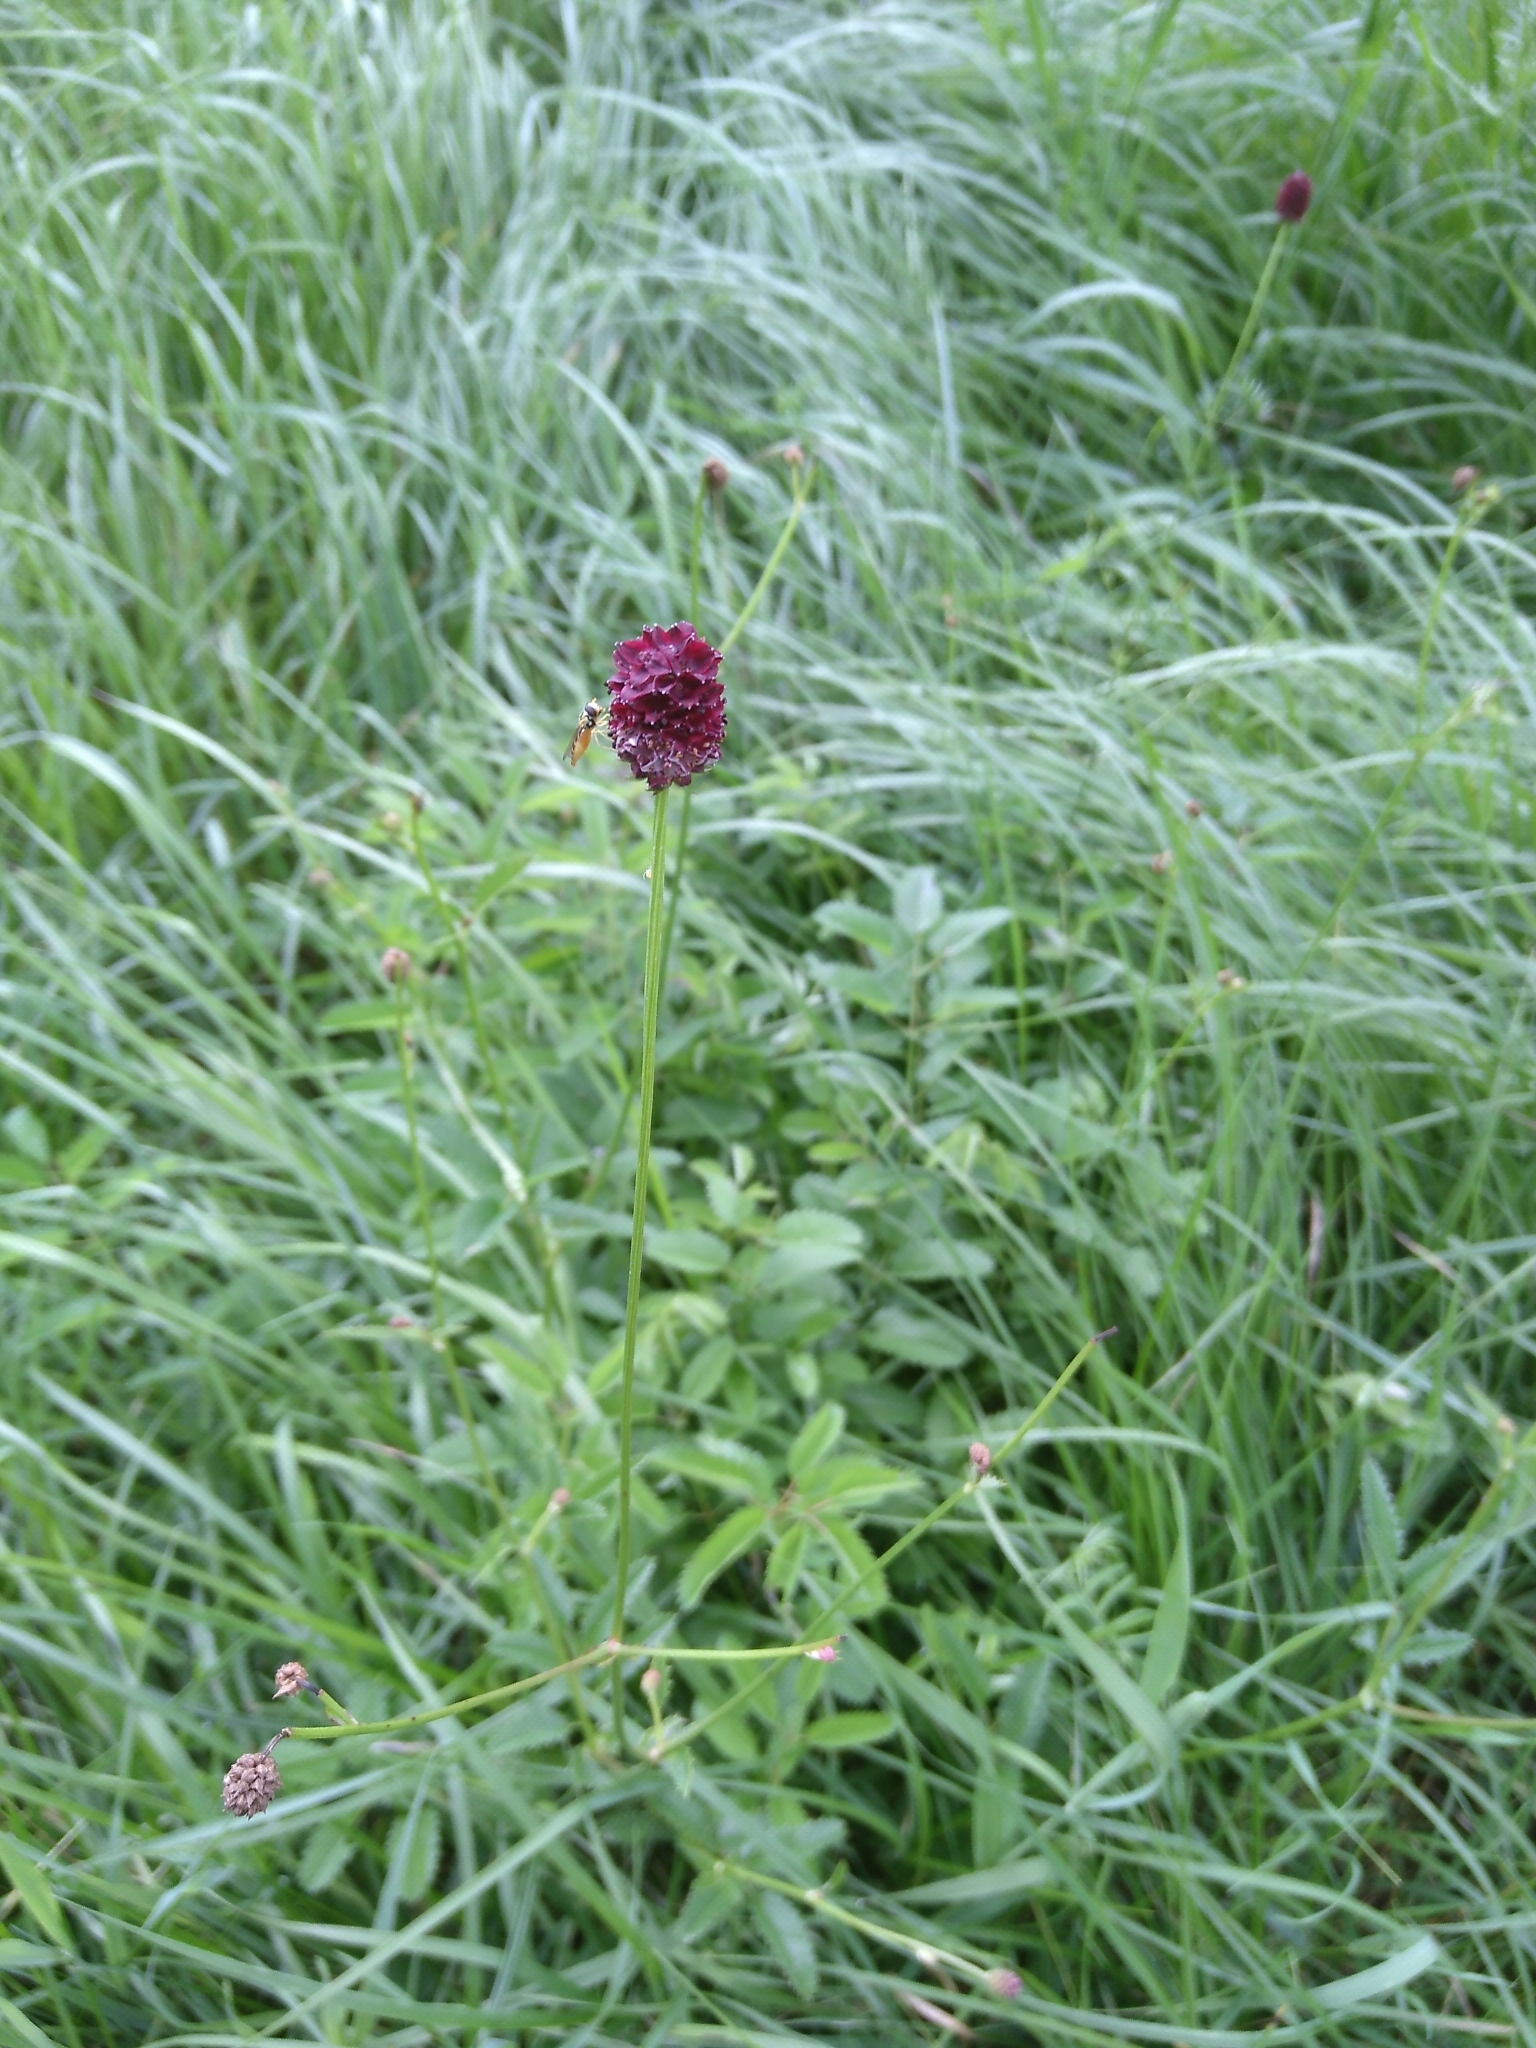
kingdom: Plantae
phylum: Tracheophyta
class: Magnoliopsida
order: Rosales
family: Rosaceae
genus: Sanguisorba
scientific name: Sanguisorba officinalis
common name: Great burnet
